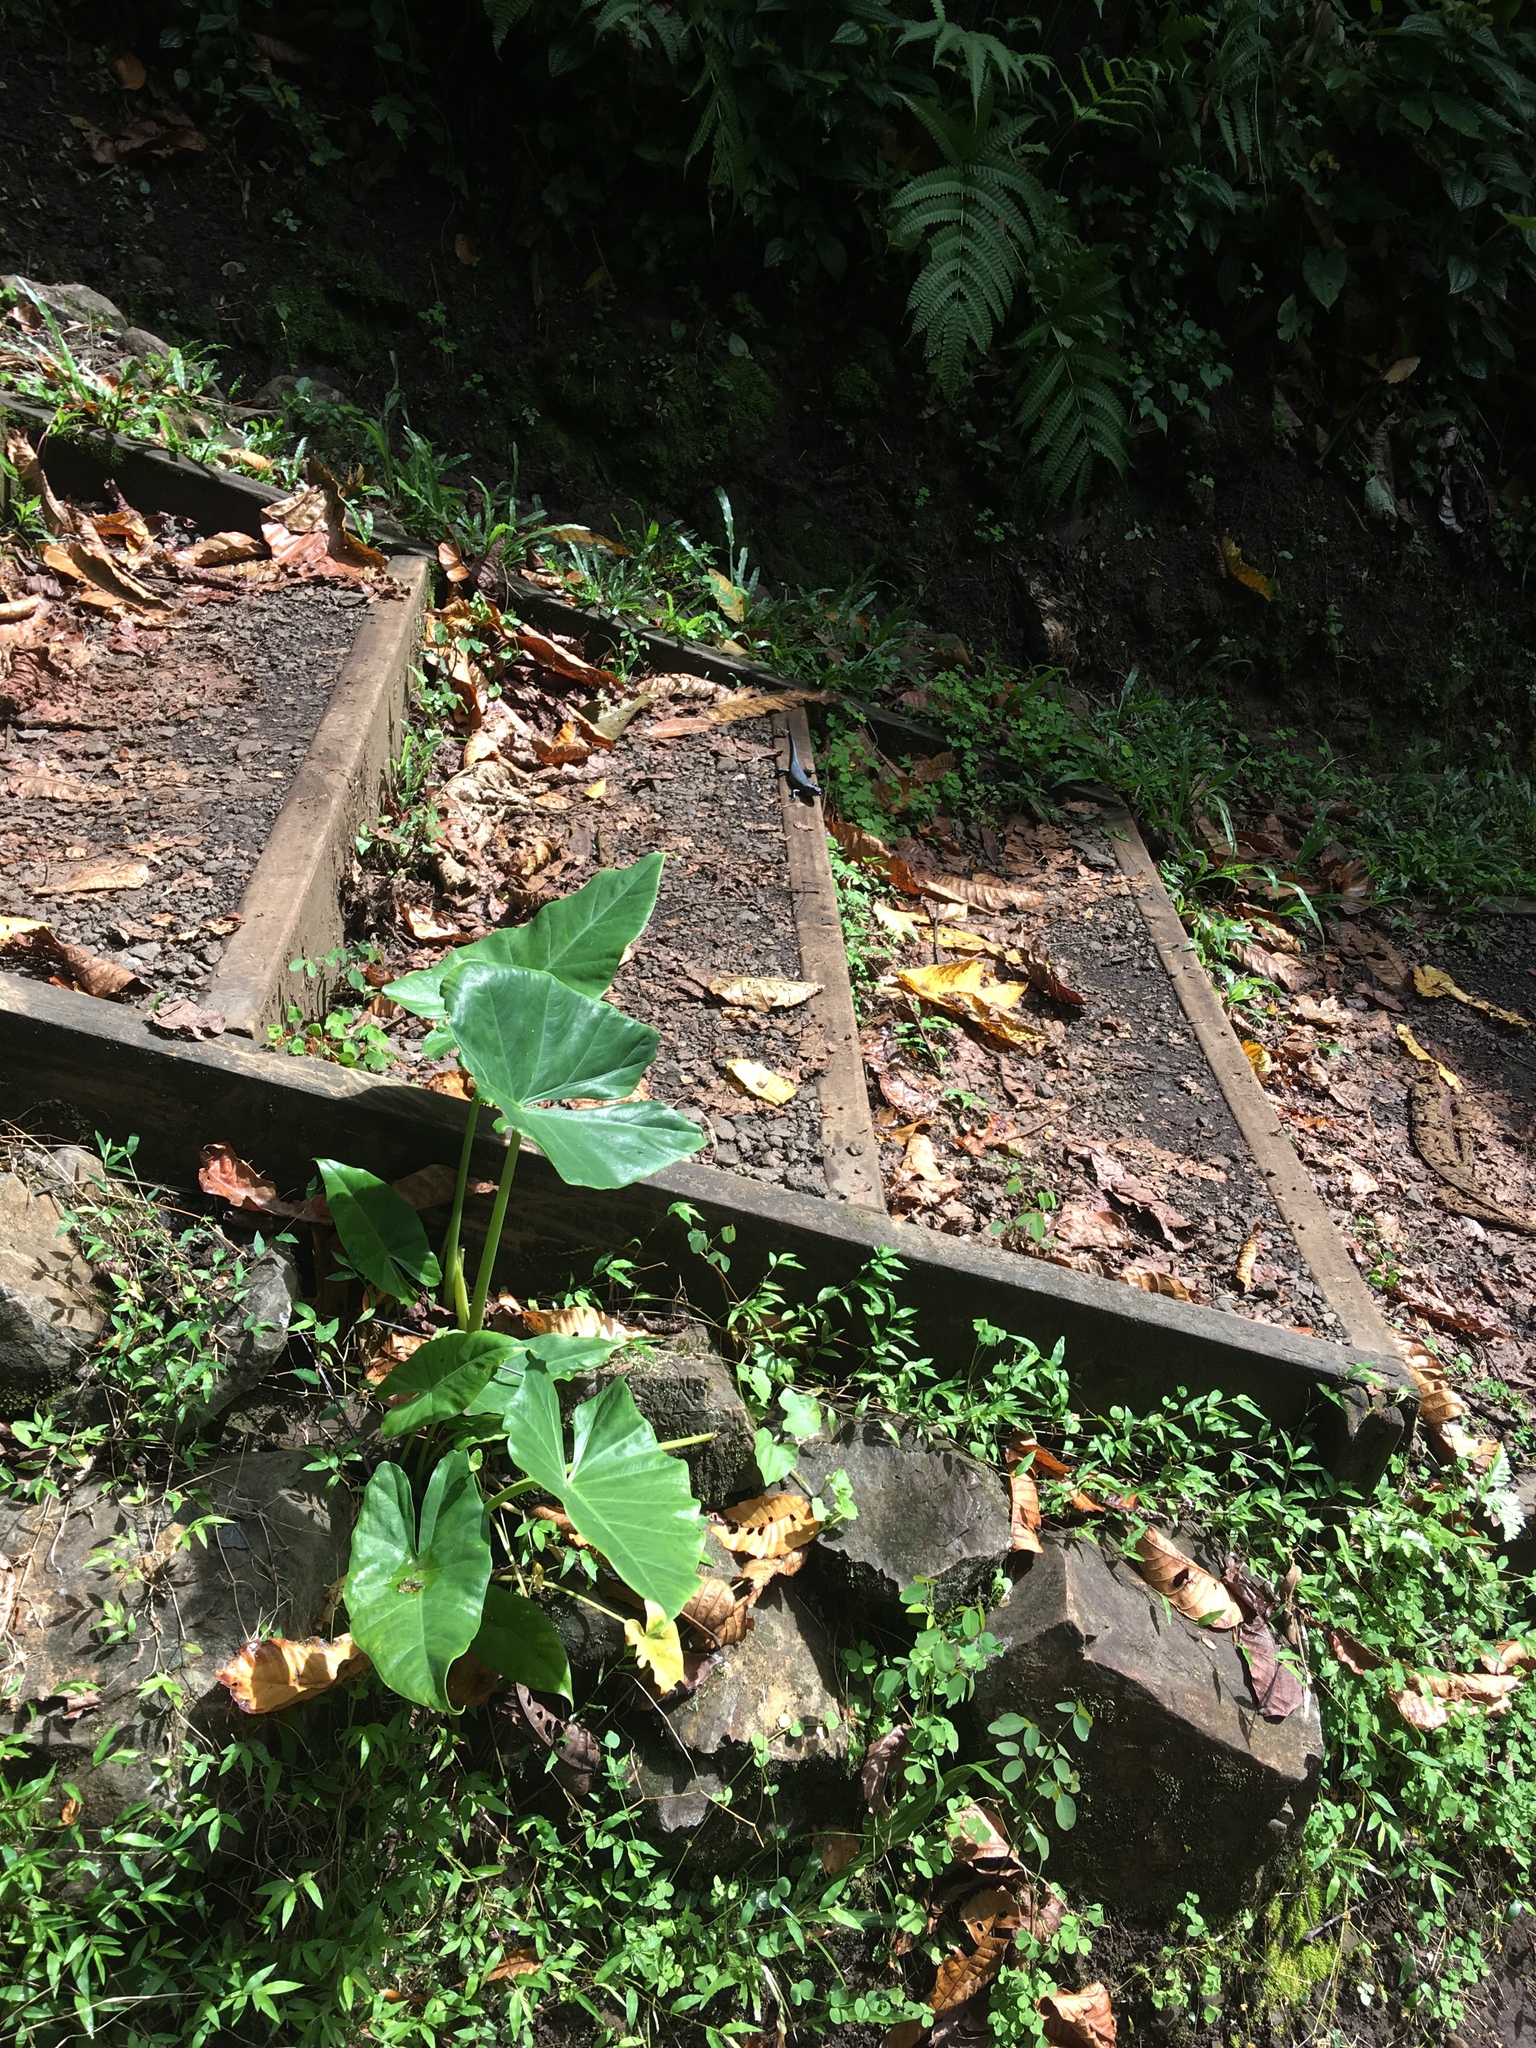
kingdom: Animalia
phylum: Chordata
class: Squamata
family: Scincidae
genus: Emoia
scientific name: Emoia nigra
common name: Black emo skink
